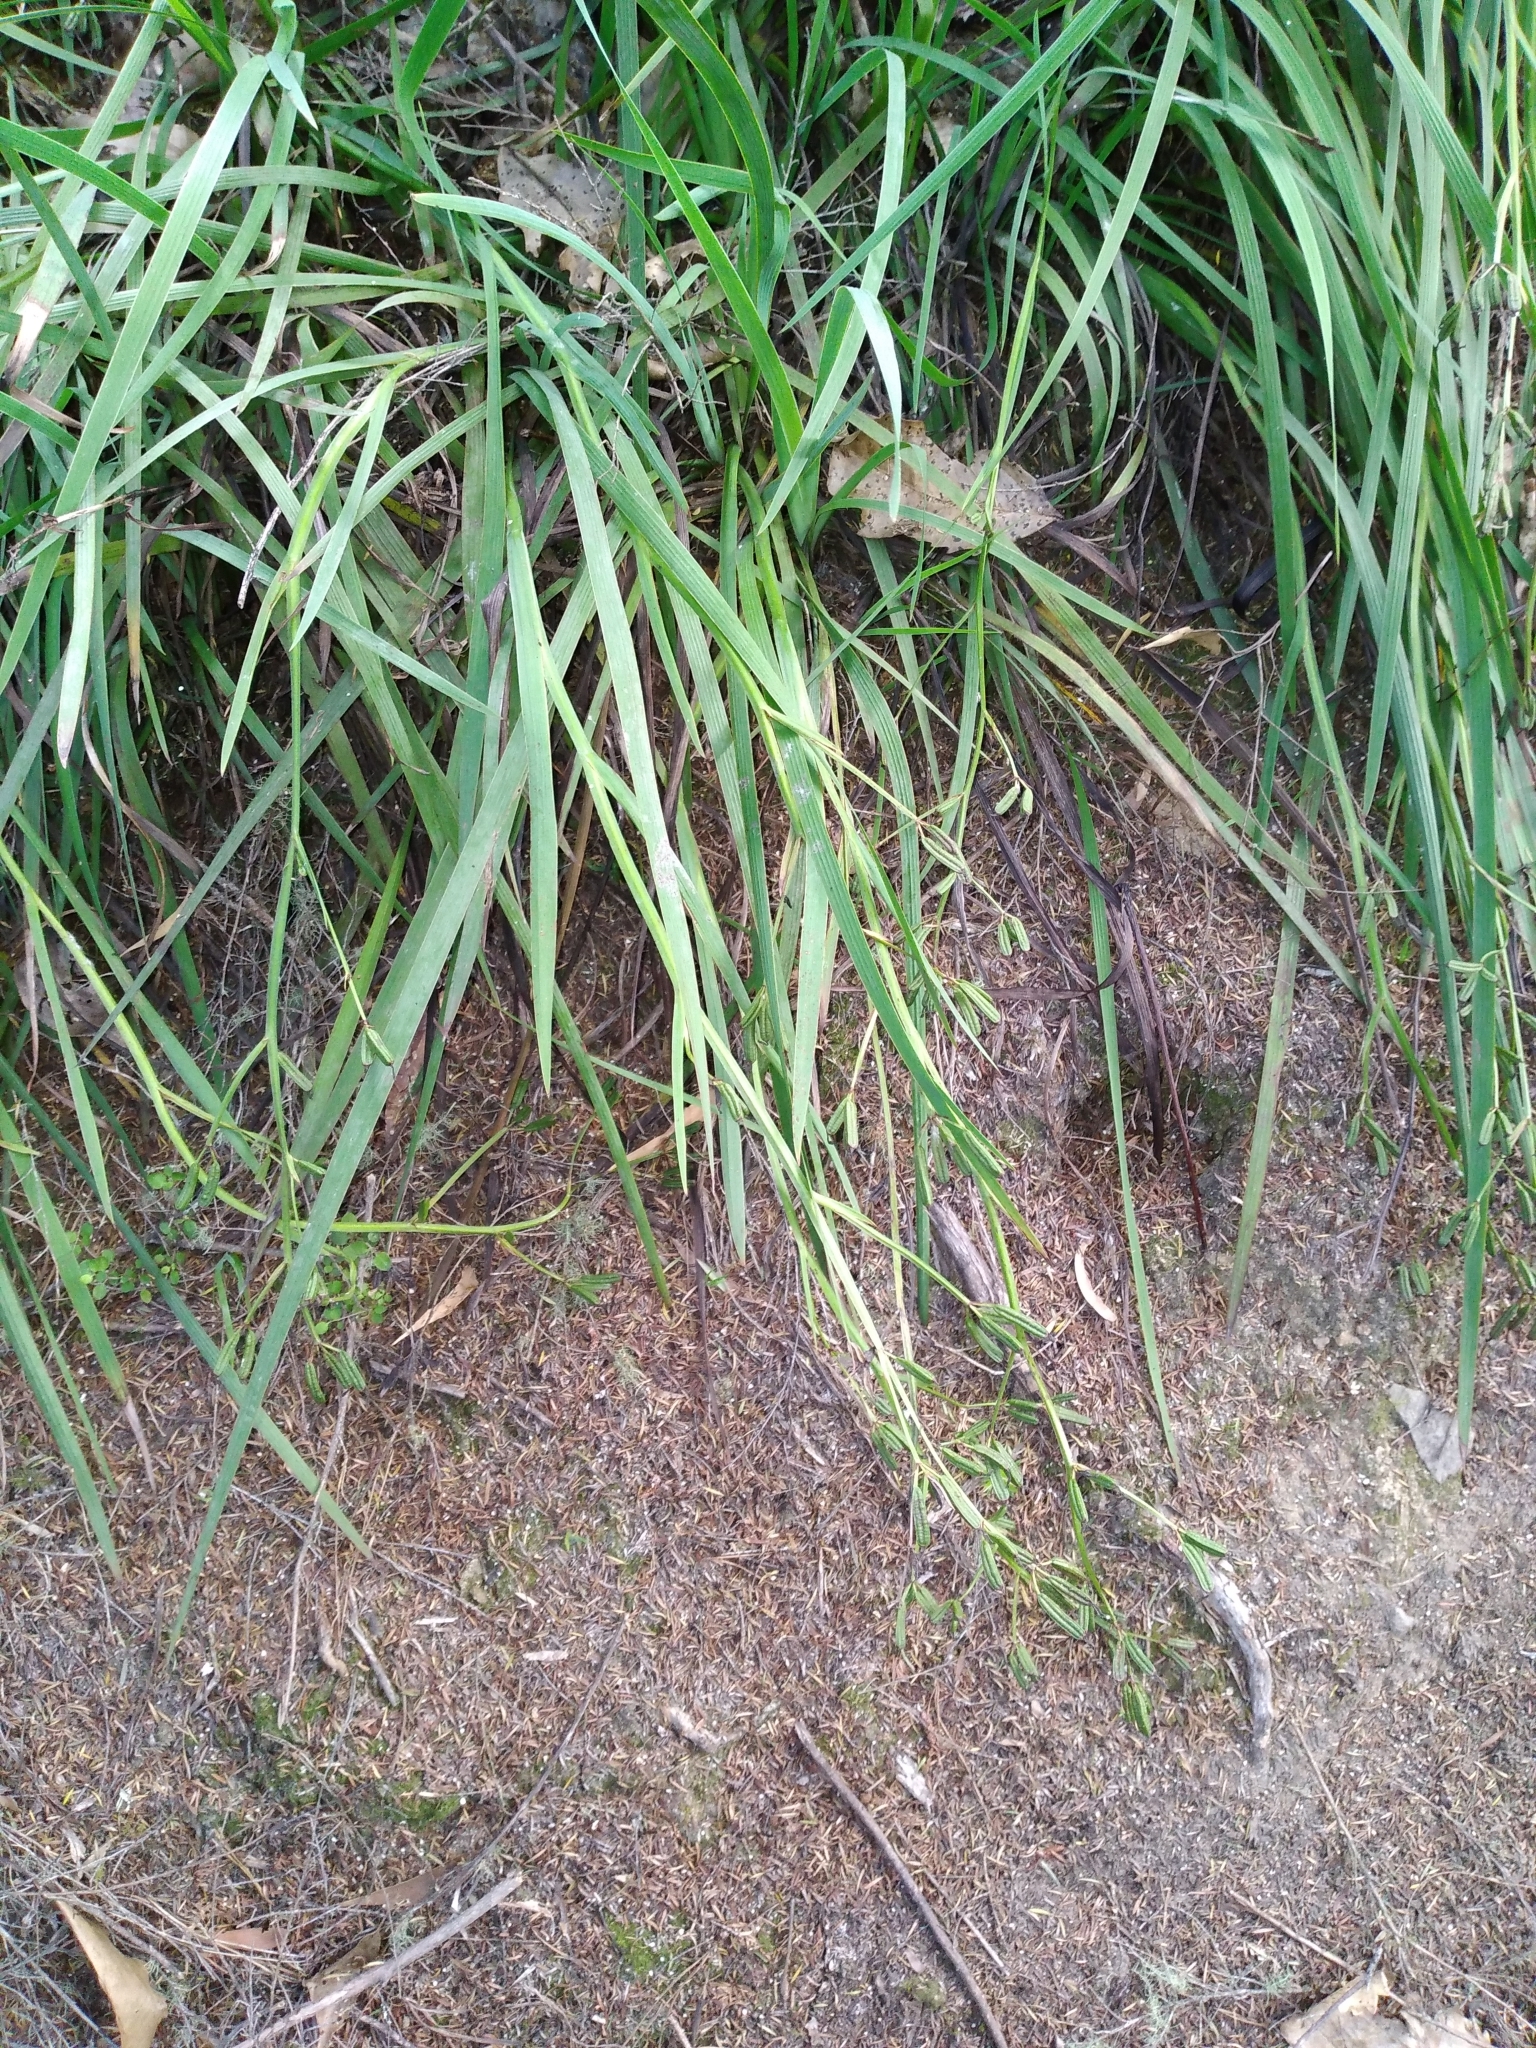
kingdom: Plantae
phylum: Tracheophyta
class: Liliopsida
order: Asparagales
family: Iridaceae
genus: Aristea
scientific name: Aristea ecklonii
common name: Blue corn-lily
